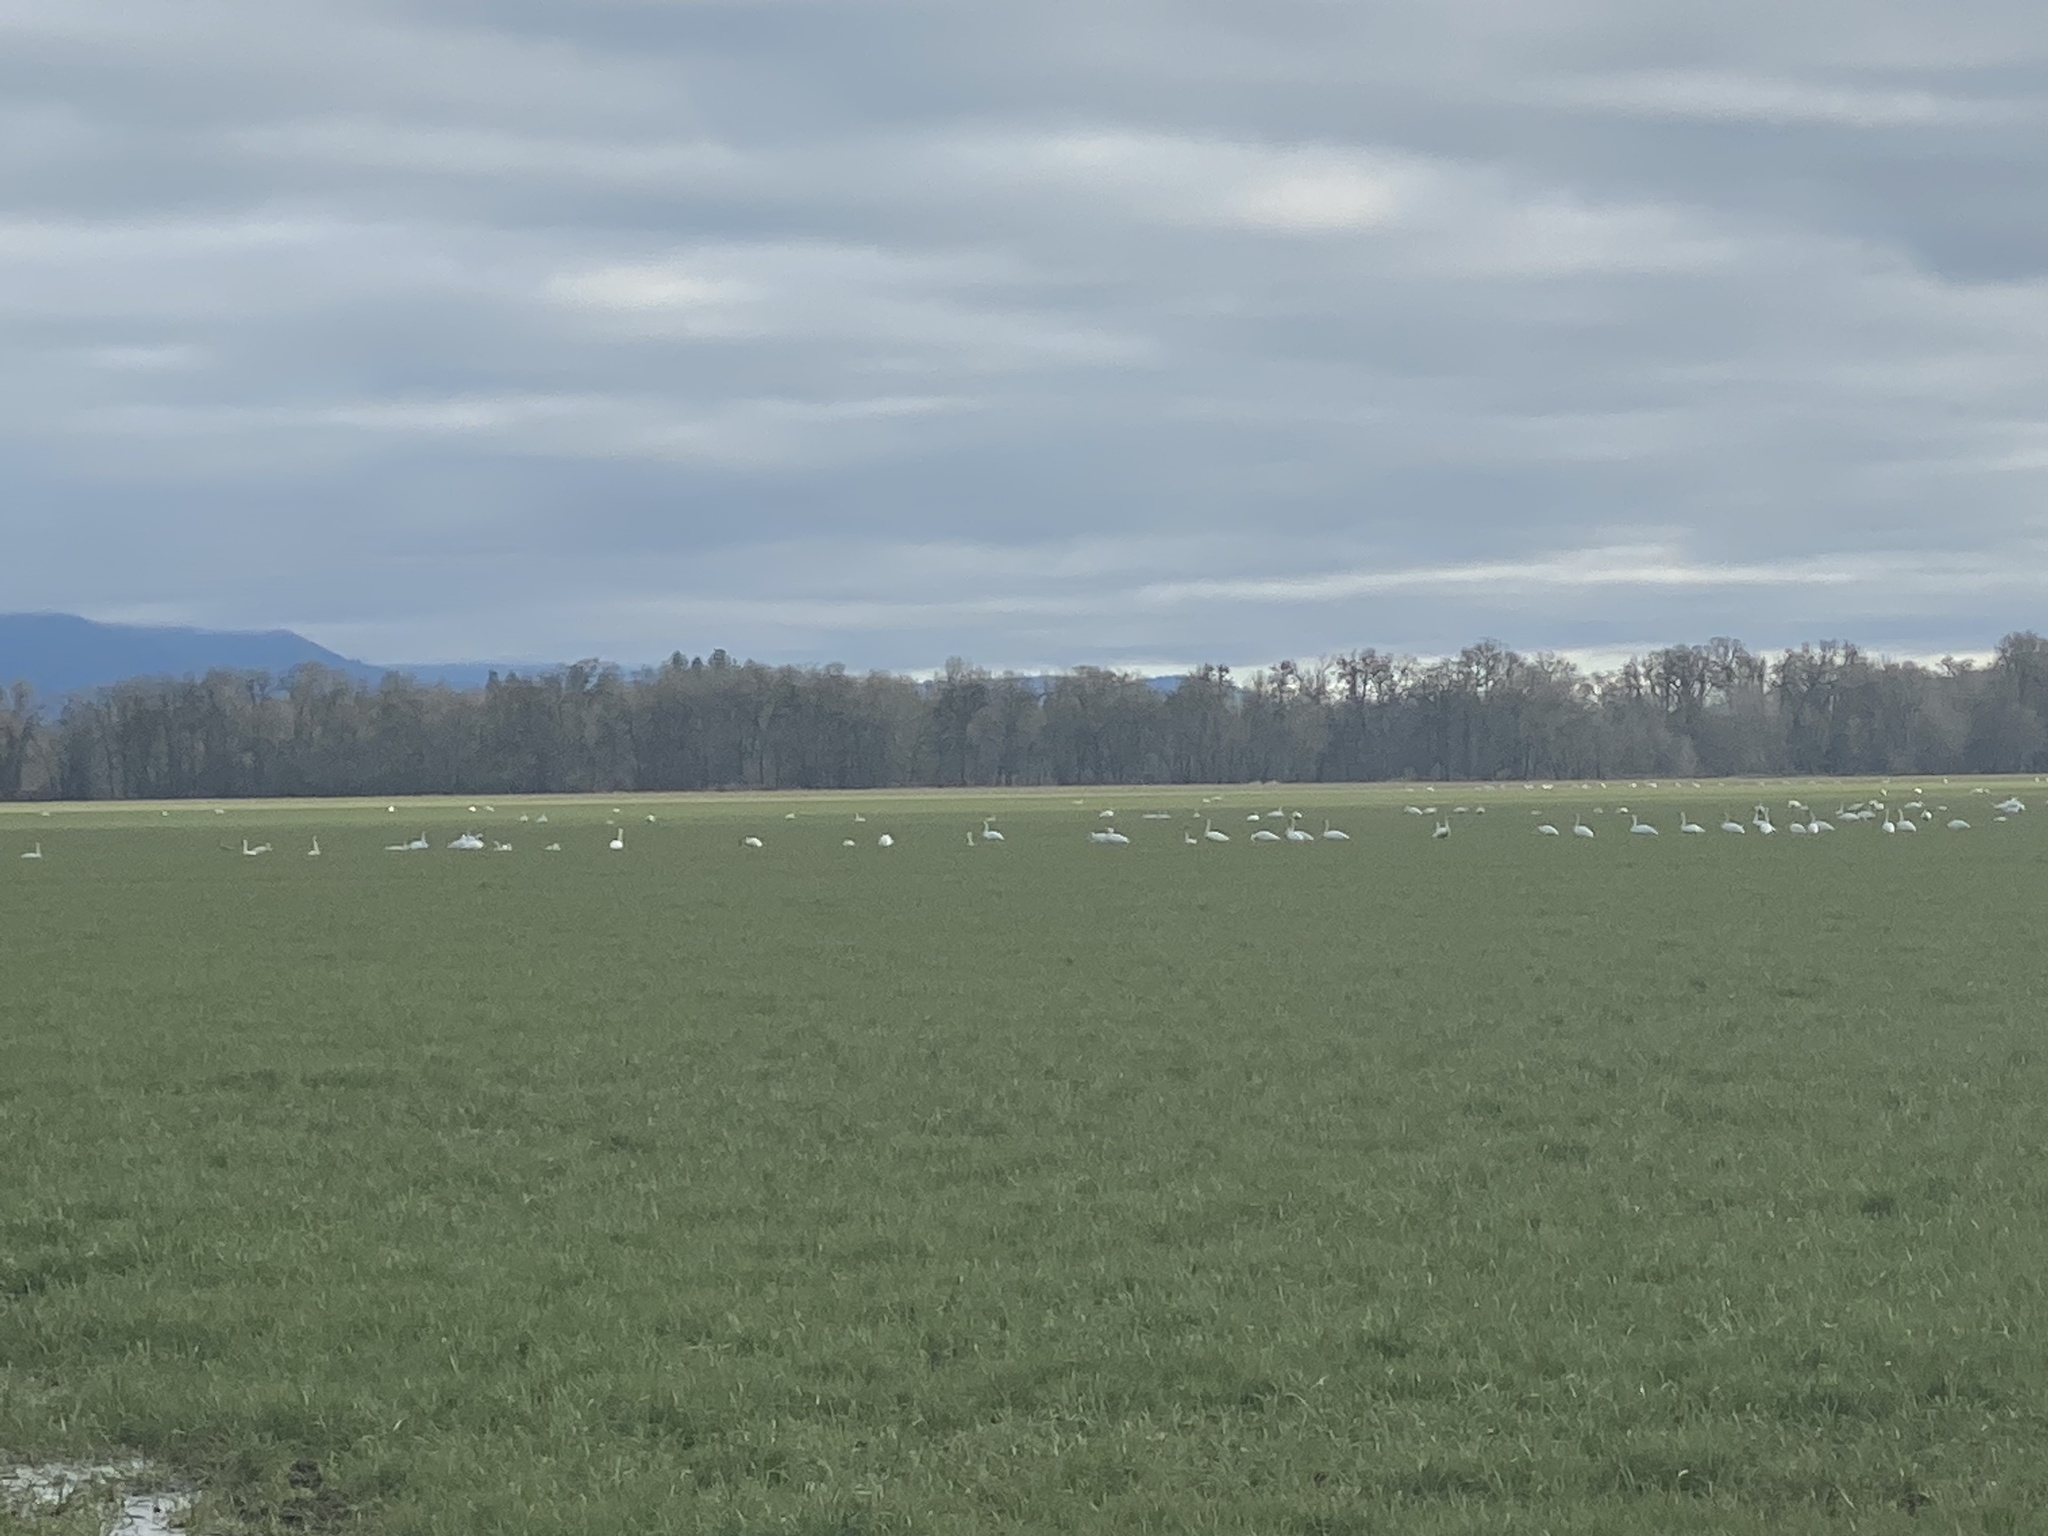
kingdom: Animalia
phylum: Chordata
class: Aves
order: Anseriformes
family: Anatidae
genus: Cygnus
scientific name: Cygnus columbianus
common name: Tundra swan
